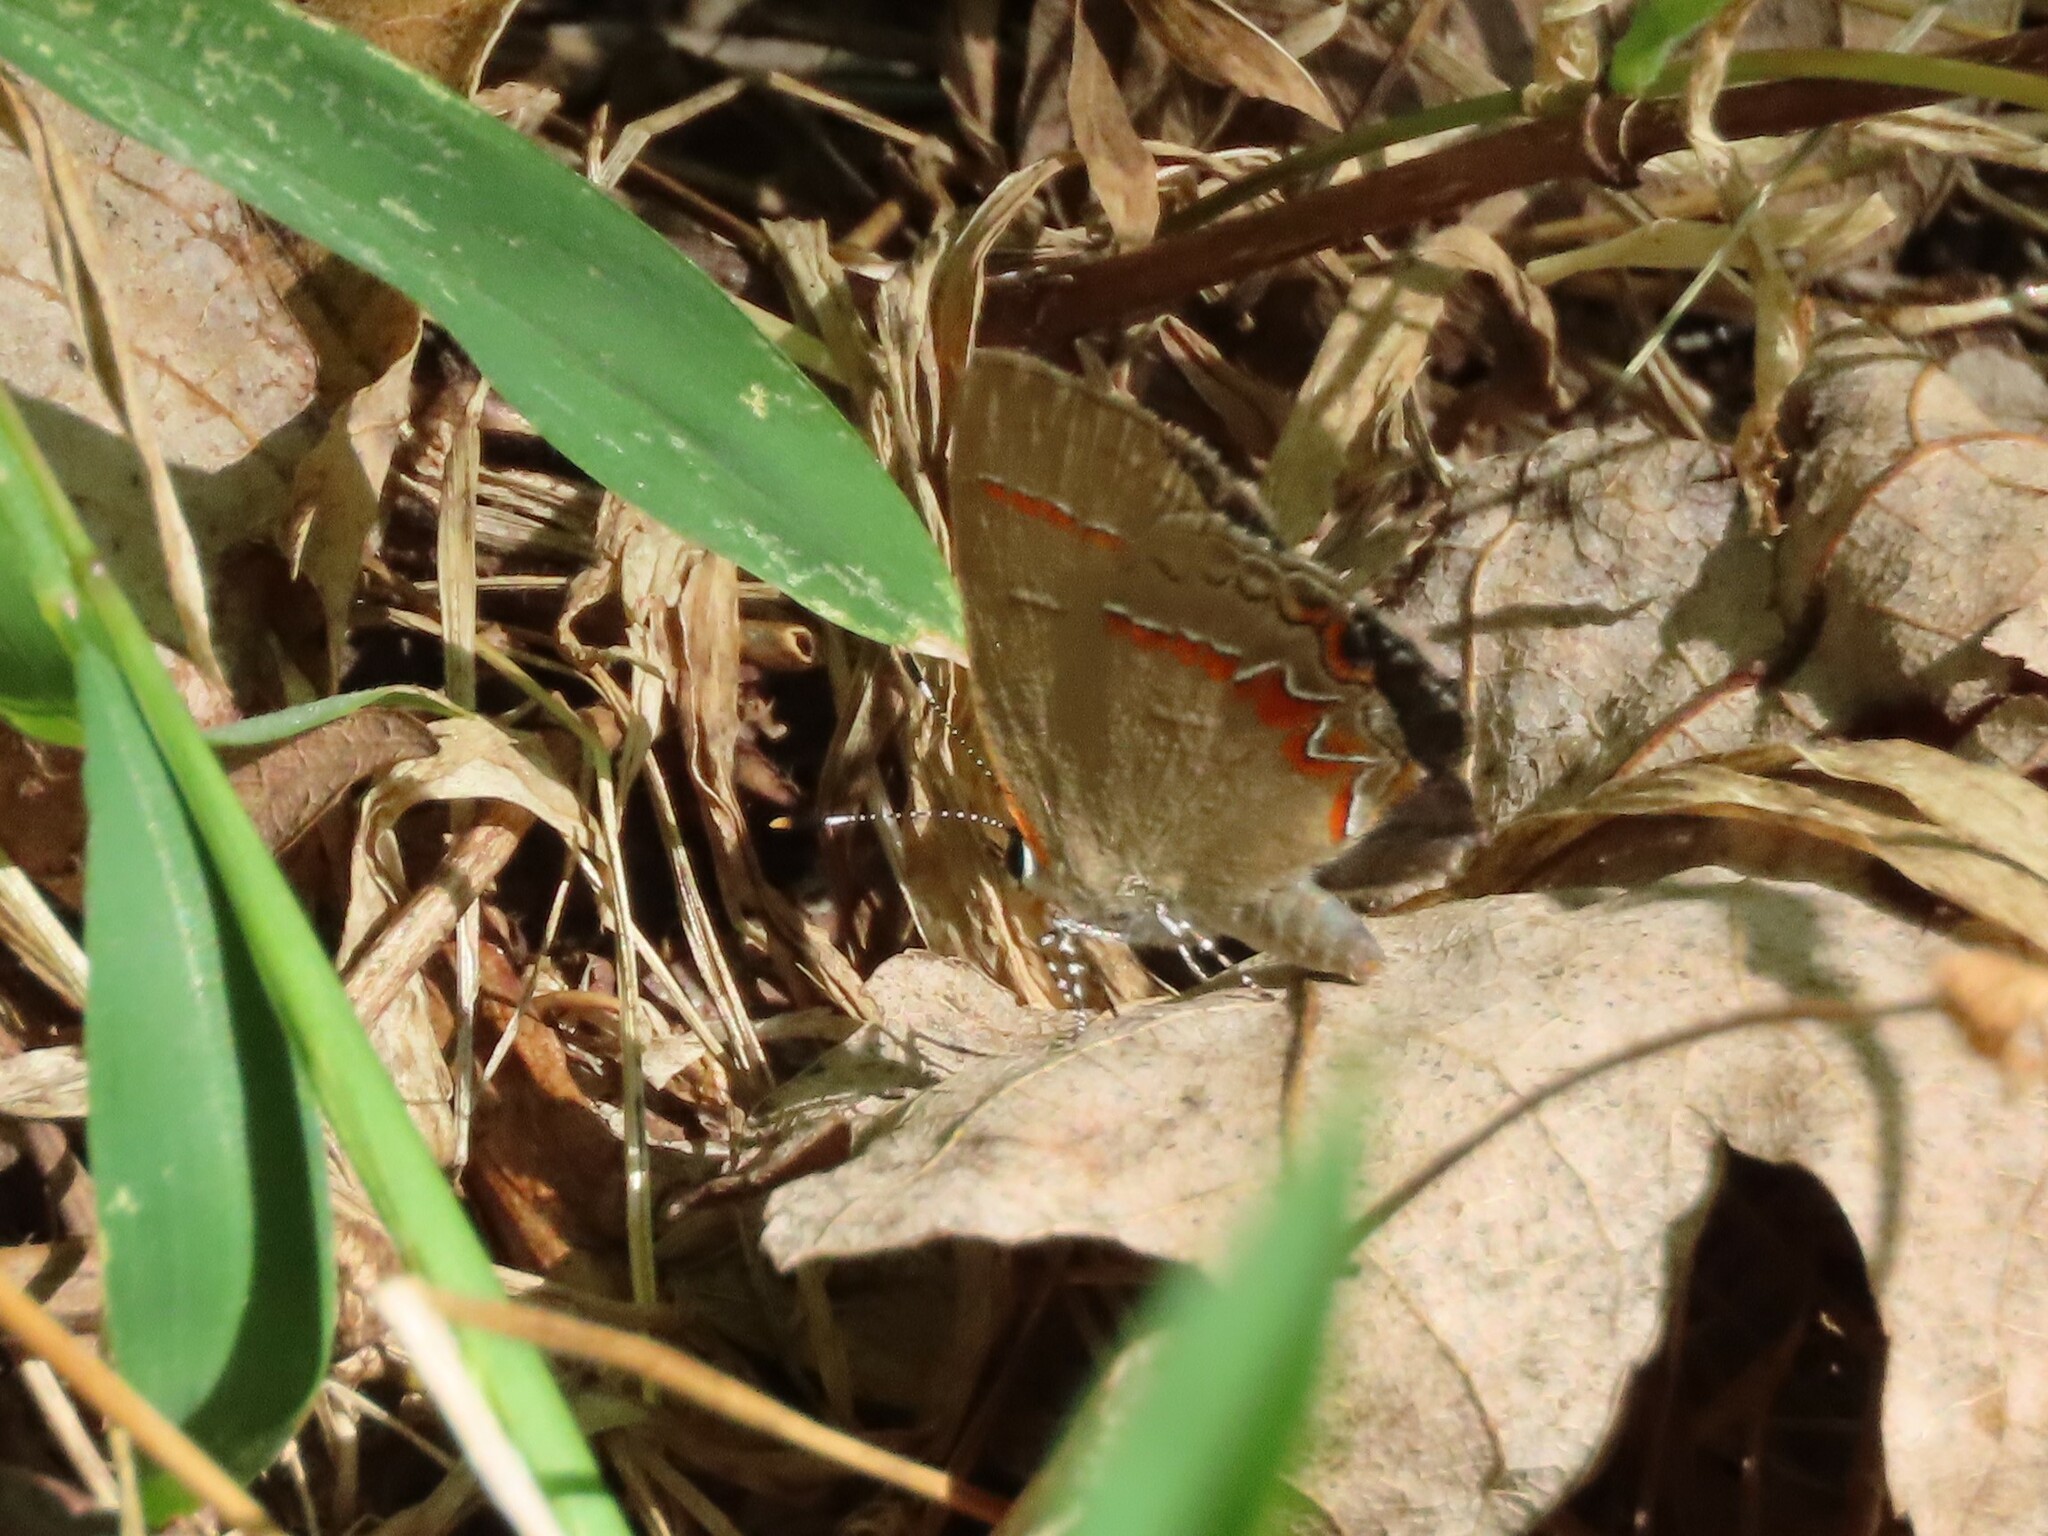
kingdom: Animalia
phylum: Arthropoda
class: Insecta
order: Lepidoptera
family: Lycaenidae
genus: Calycopis
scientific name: Calycopis cecrops
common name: Red-banded hairstreak
